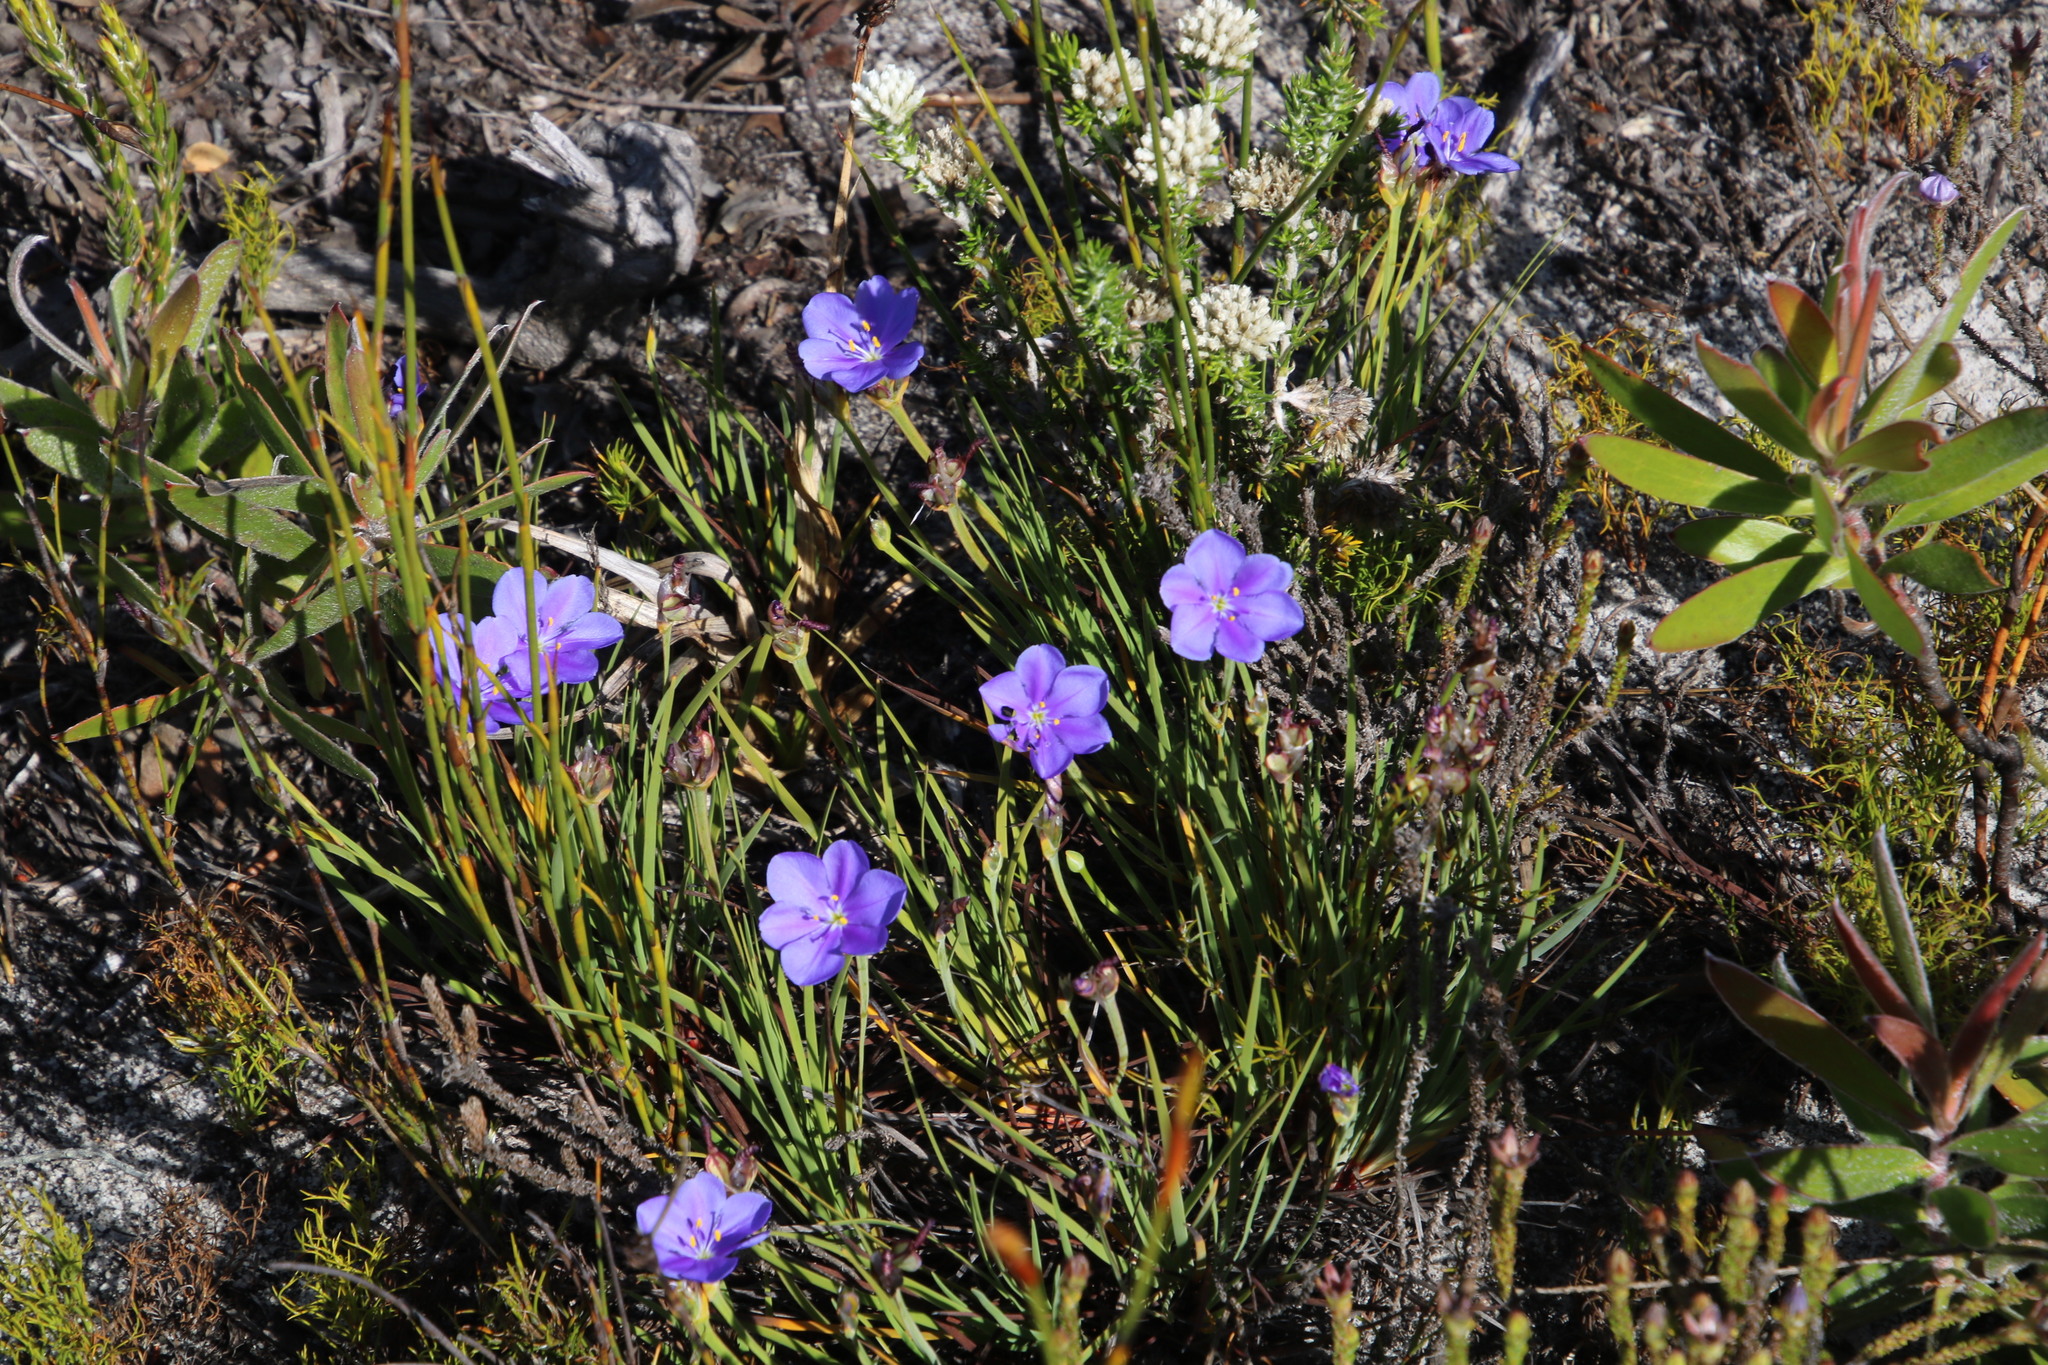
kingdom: Plantae
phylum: Tracheophyta
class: Liliopsida
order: Asparagales
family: Iridaceae
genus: Aristea
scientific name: Aristea africana
